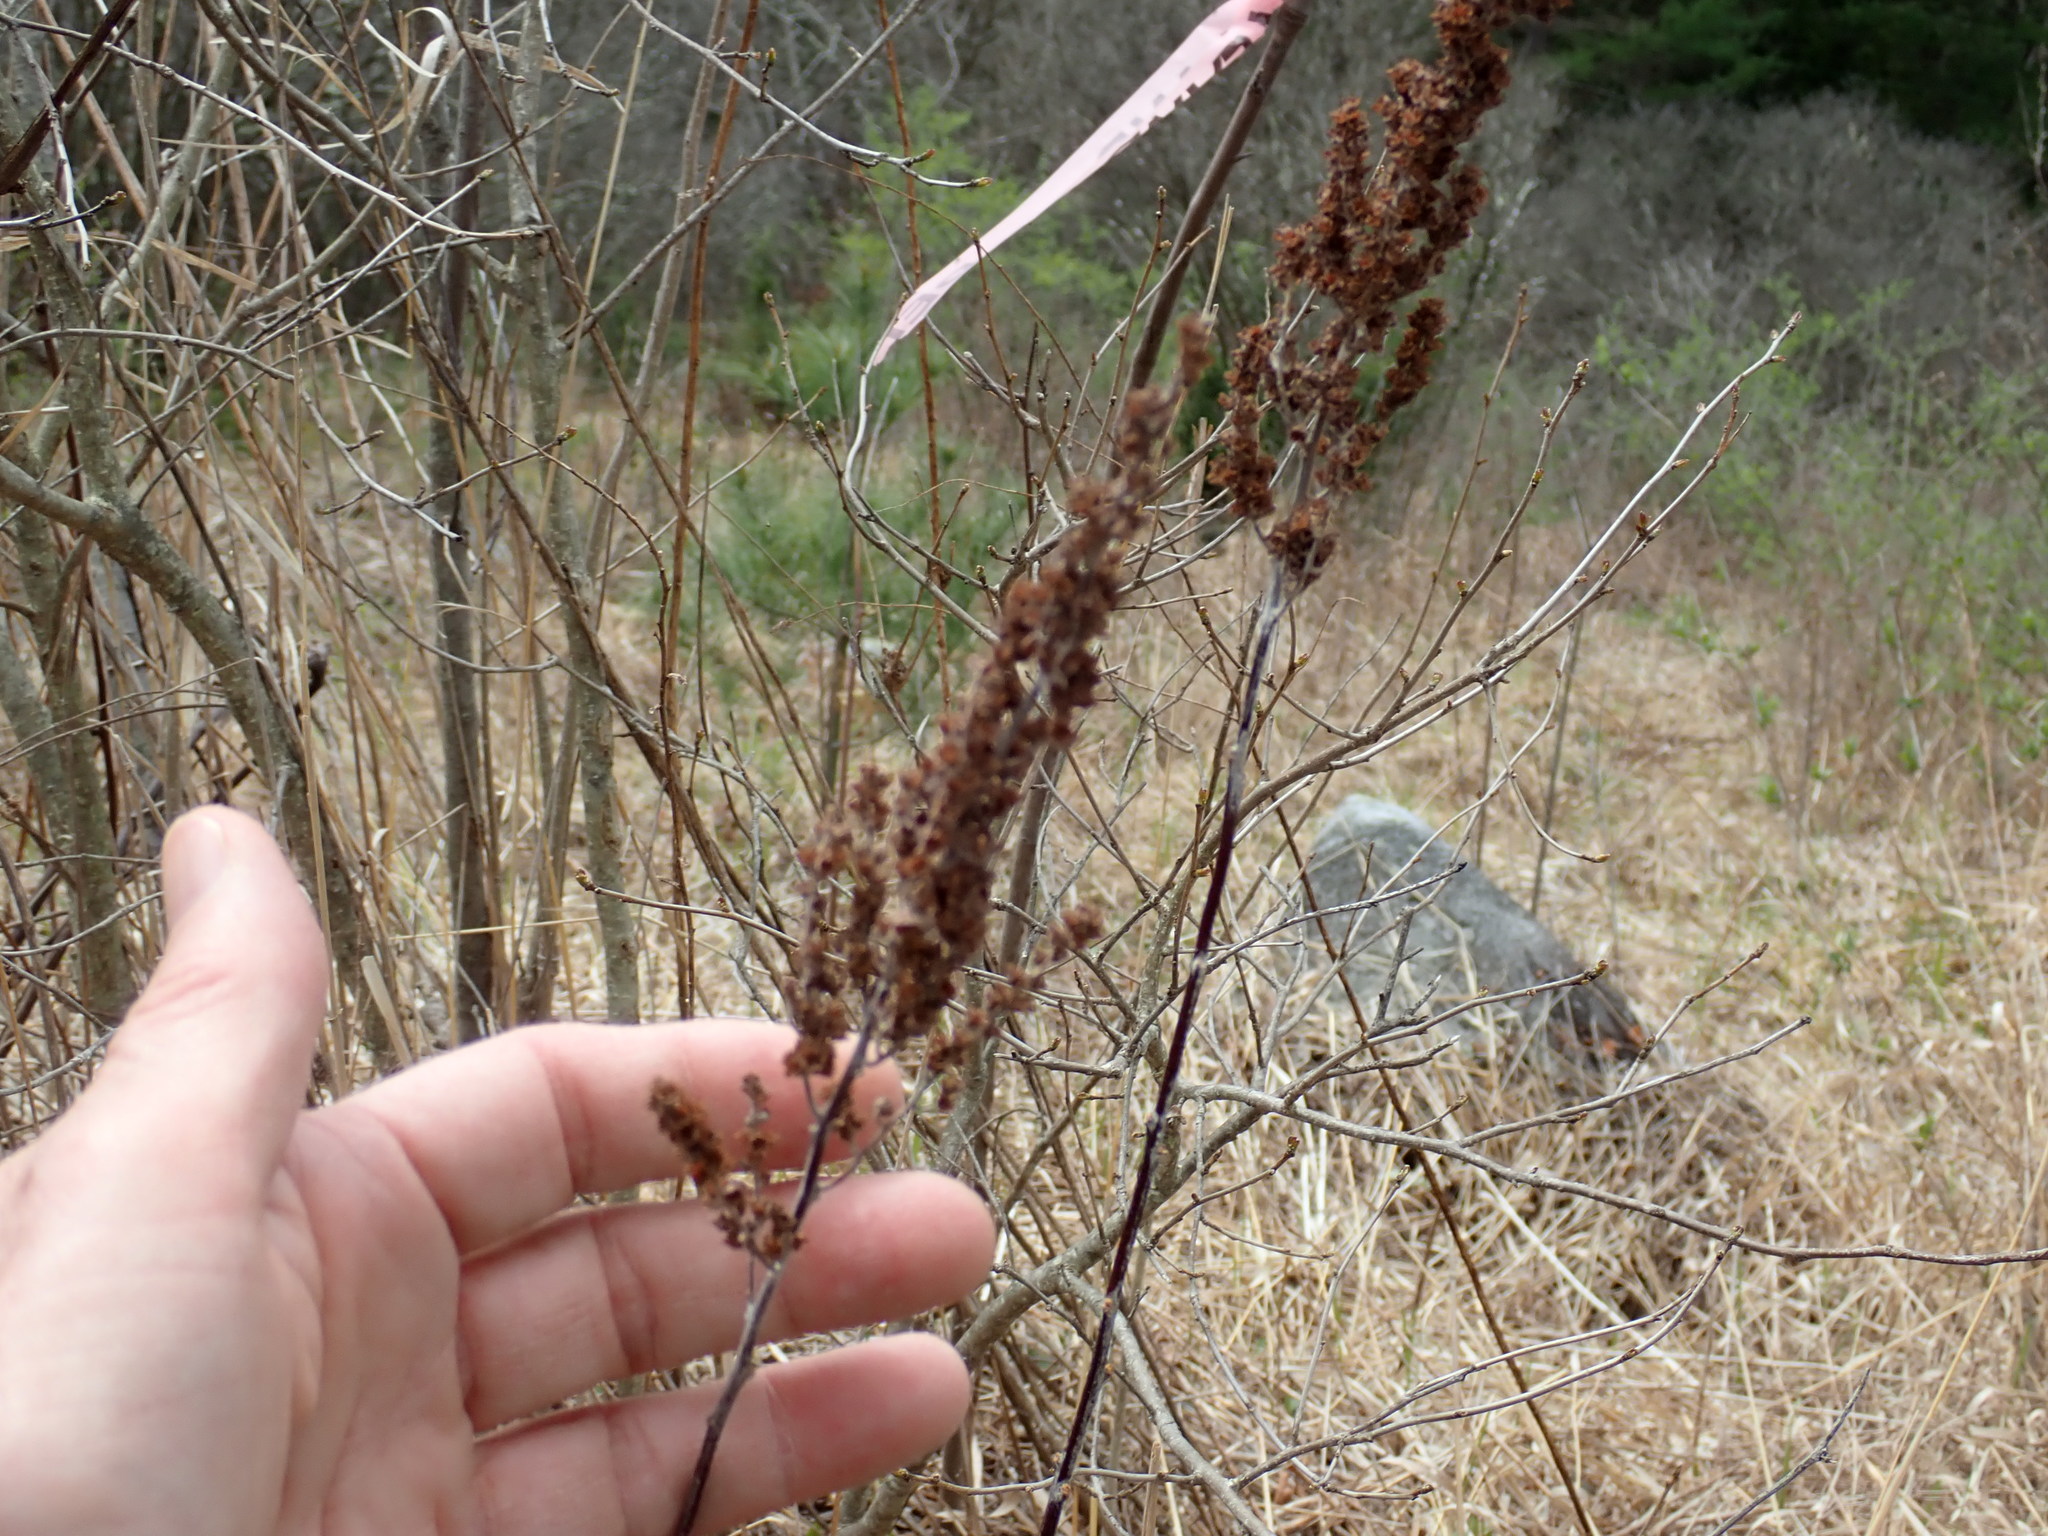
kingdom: Plantae
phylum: Tracheophyta
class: Magnoliopsida
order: Rosales
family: Rosaceae
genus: Spiraea
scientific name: Spiraea tomentosa
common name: Hardhack
